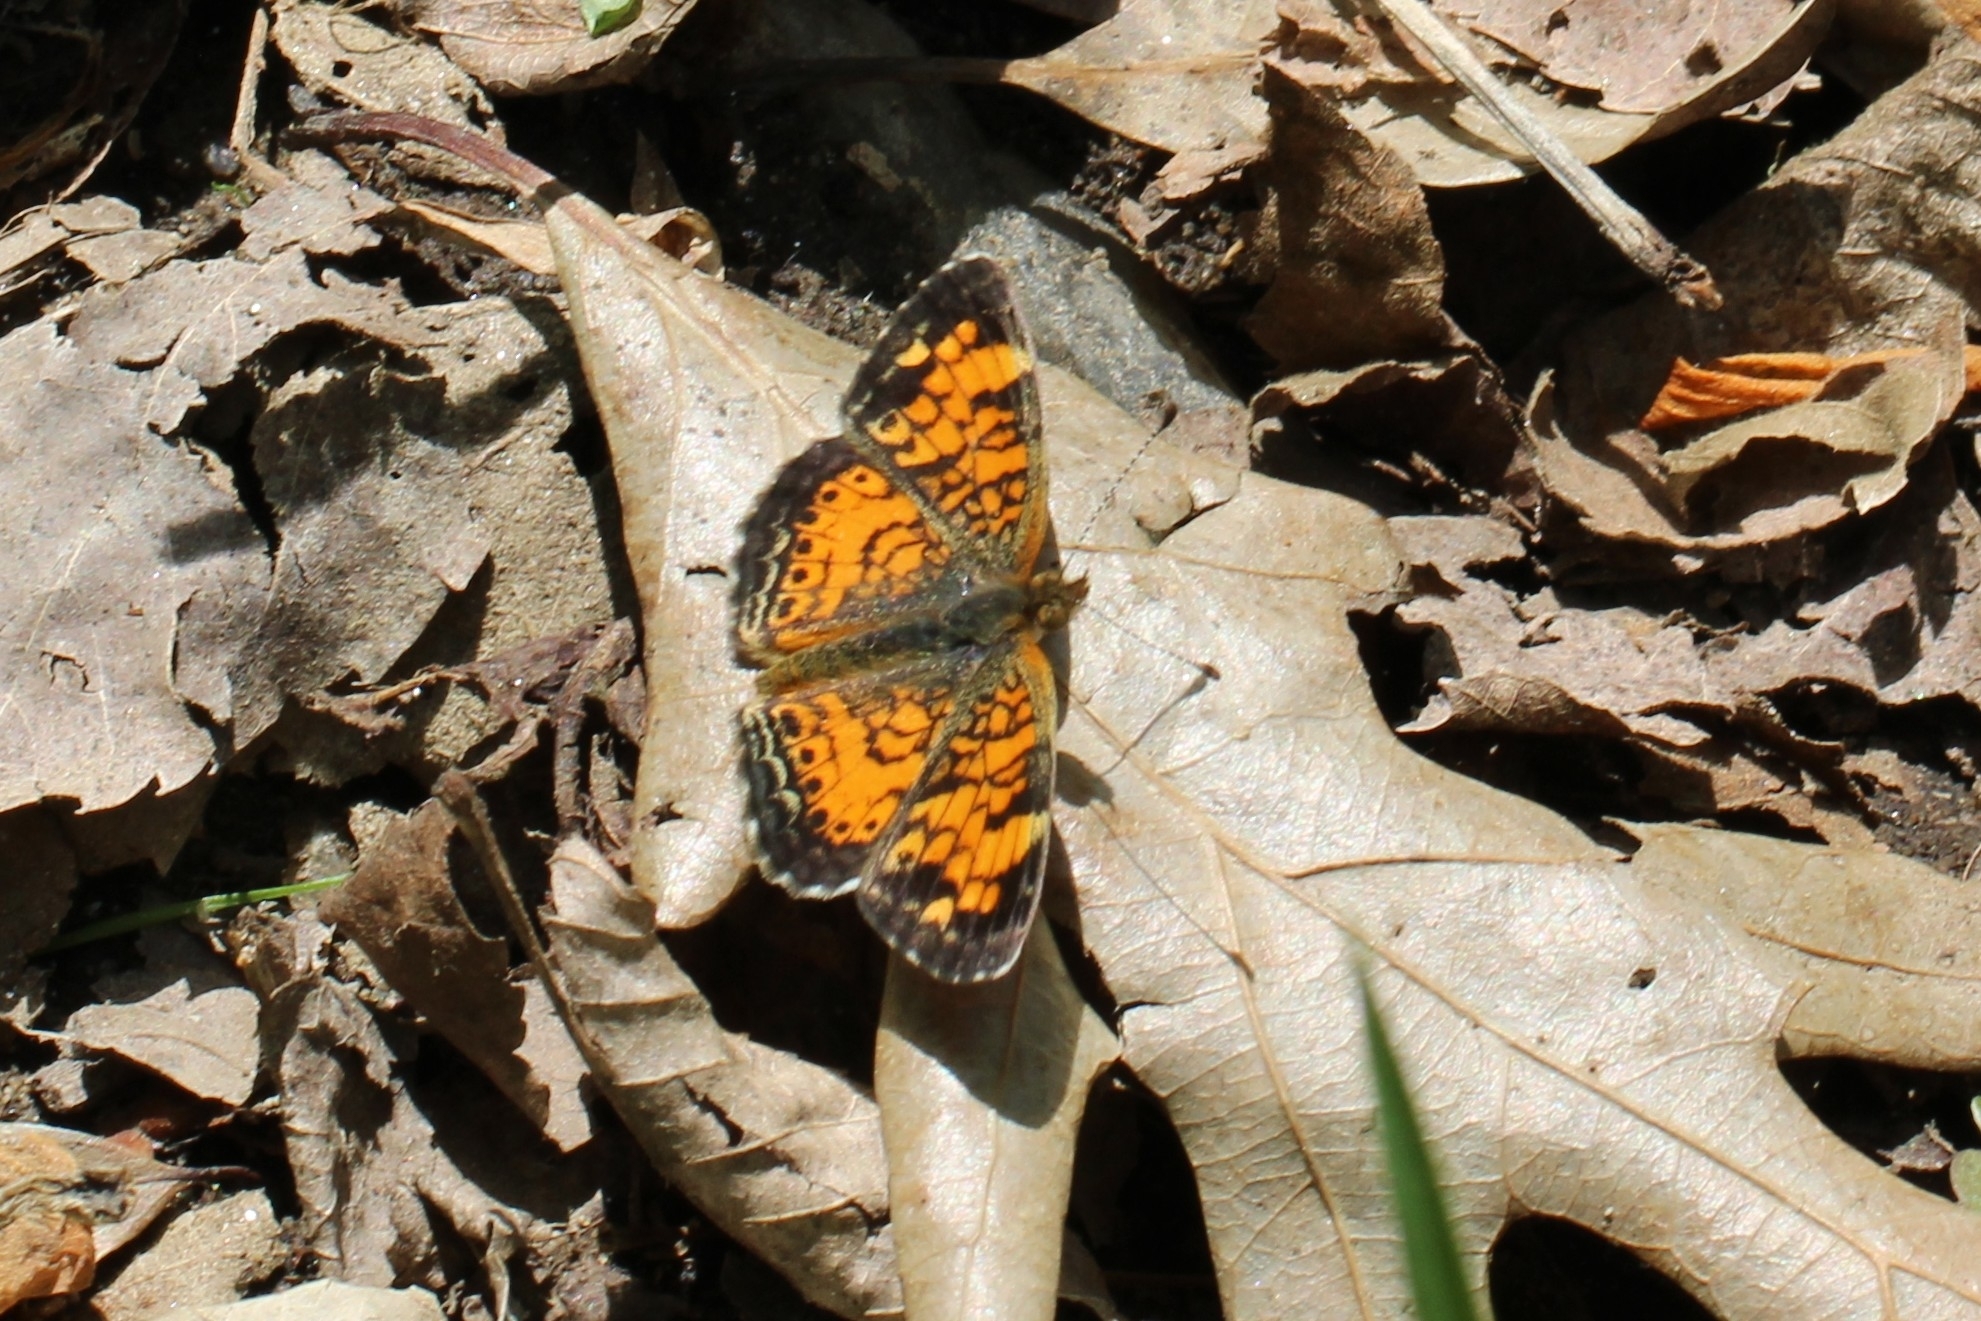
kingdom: Animalia
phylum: Arthropoda
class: Insecta
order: Lepidoptera
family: Nymphalidae
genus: Phyciodes
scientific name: Phyciodes tharos
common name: Pearl crescent
